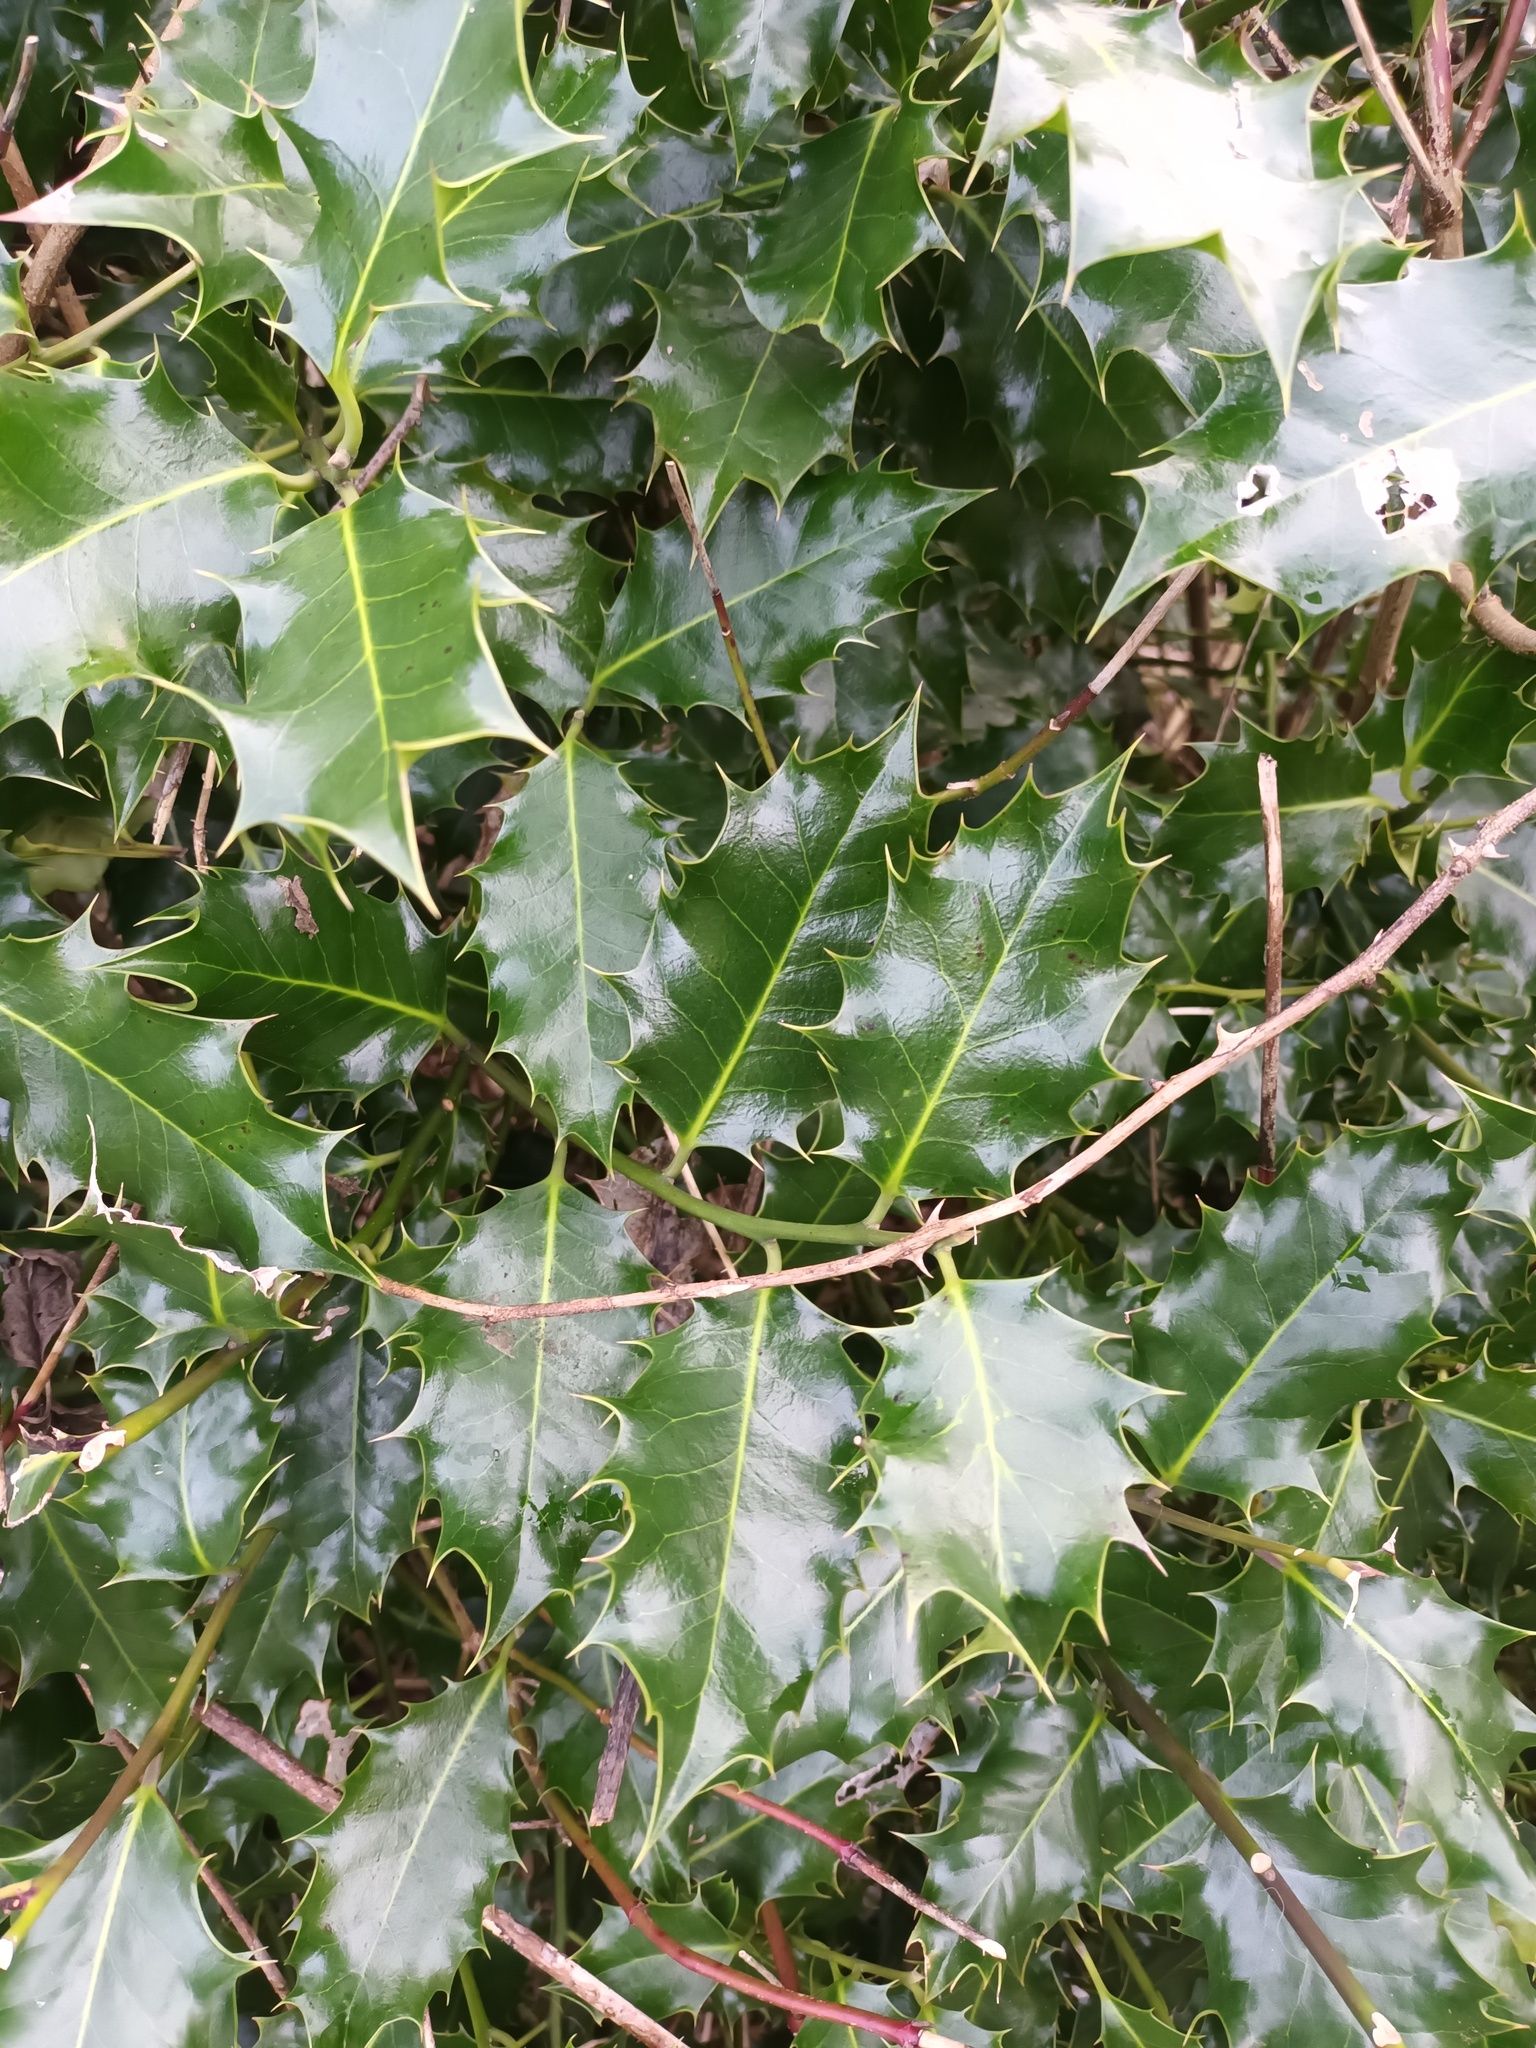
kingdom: Plantae
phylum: Tracheophyta
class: Magnoliopsida
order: Aquifoliales
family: Aquifoliaceae
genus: Ilex
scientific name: Ilex aquifolium
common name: English holly
